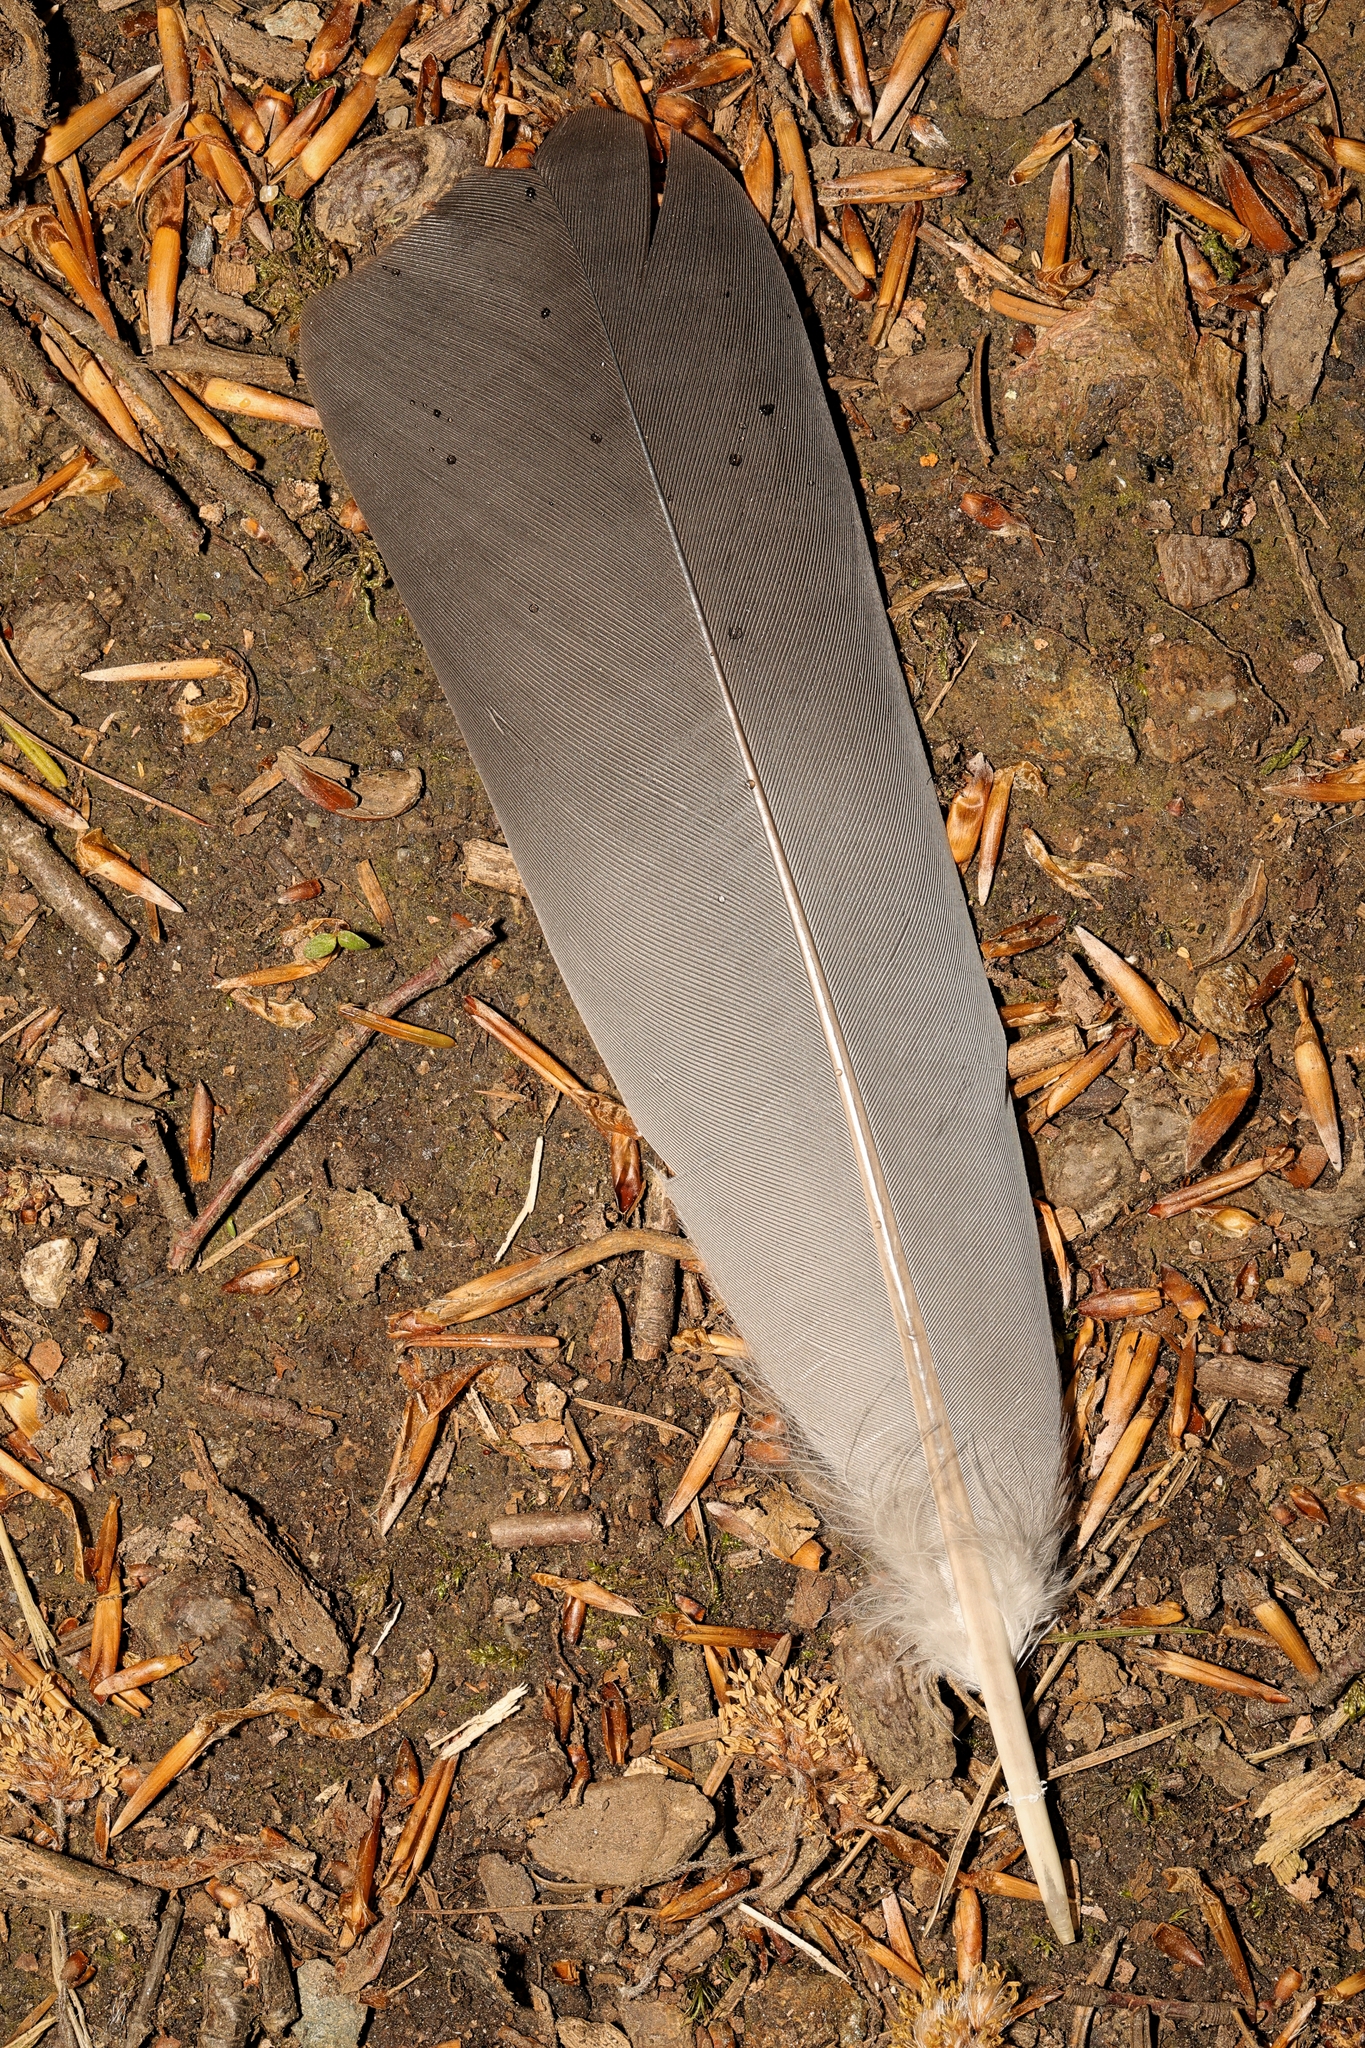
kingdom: Animalia
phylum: Chordata
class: Aves
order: Columbiformes
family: Columbidae
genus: Columba
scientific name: Columba palumbus
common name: Common wood pigeon
